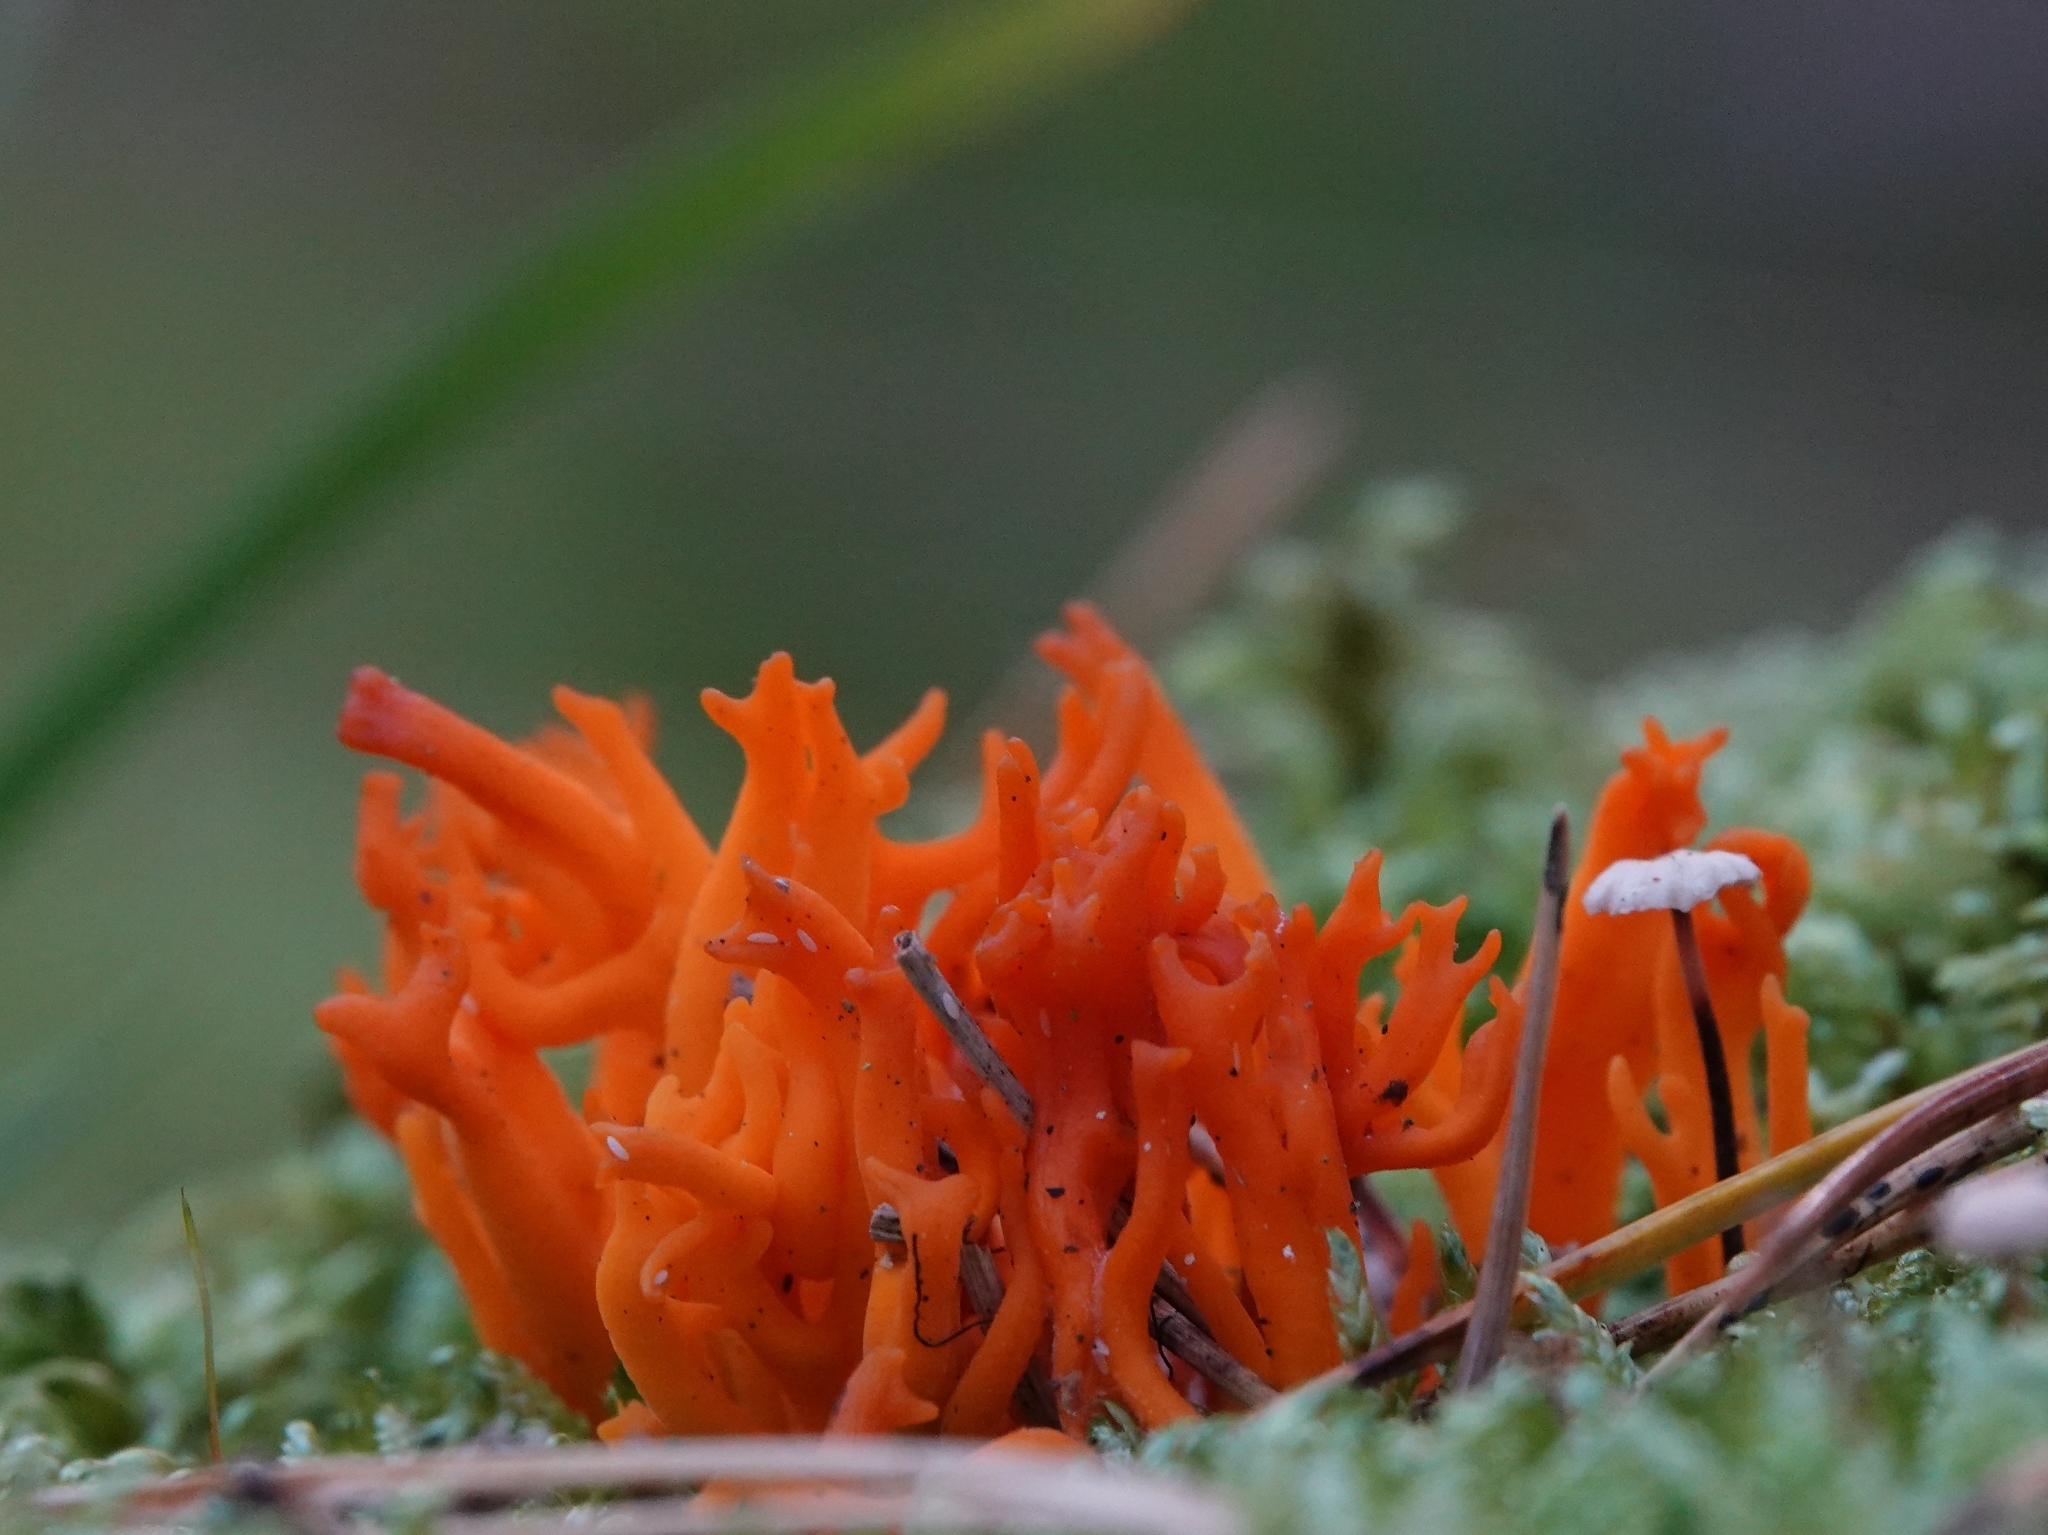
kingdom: Fungi
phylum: Basidiomycota
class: Dacrymycetes
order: Dacrymycetales
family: Dacrymycetaceae
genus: Calocera
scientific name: Calocera viscosa
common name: Yellow stagshorn
